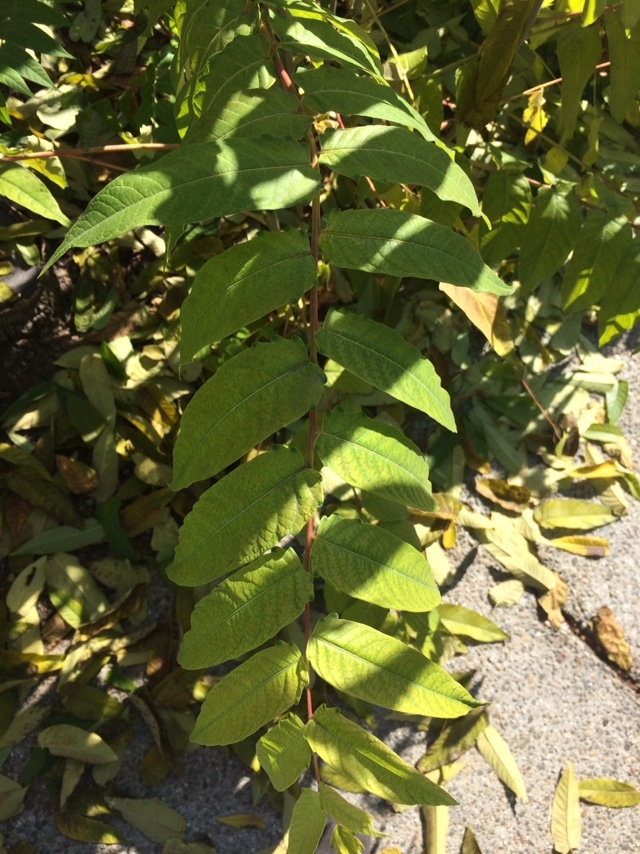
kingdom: Plantae
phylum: Tracheophyta
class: Magnoliopsida
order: Sapindales
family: Simaroubaceae
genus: Ailanthus
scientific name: Ailanthus altissima
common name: Tree-of-heaven
